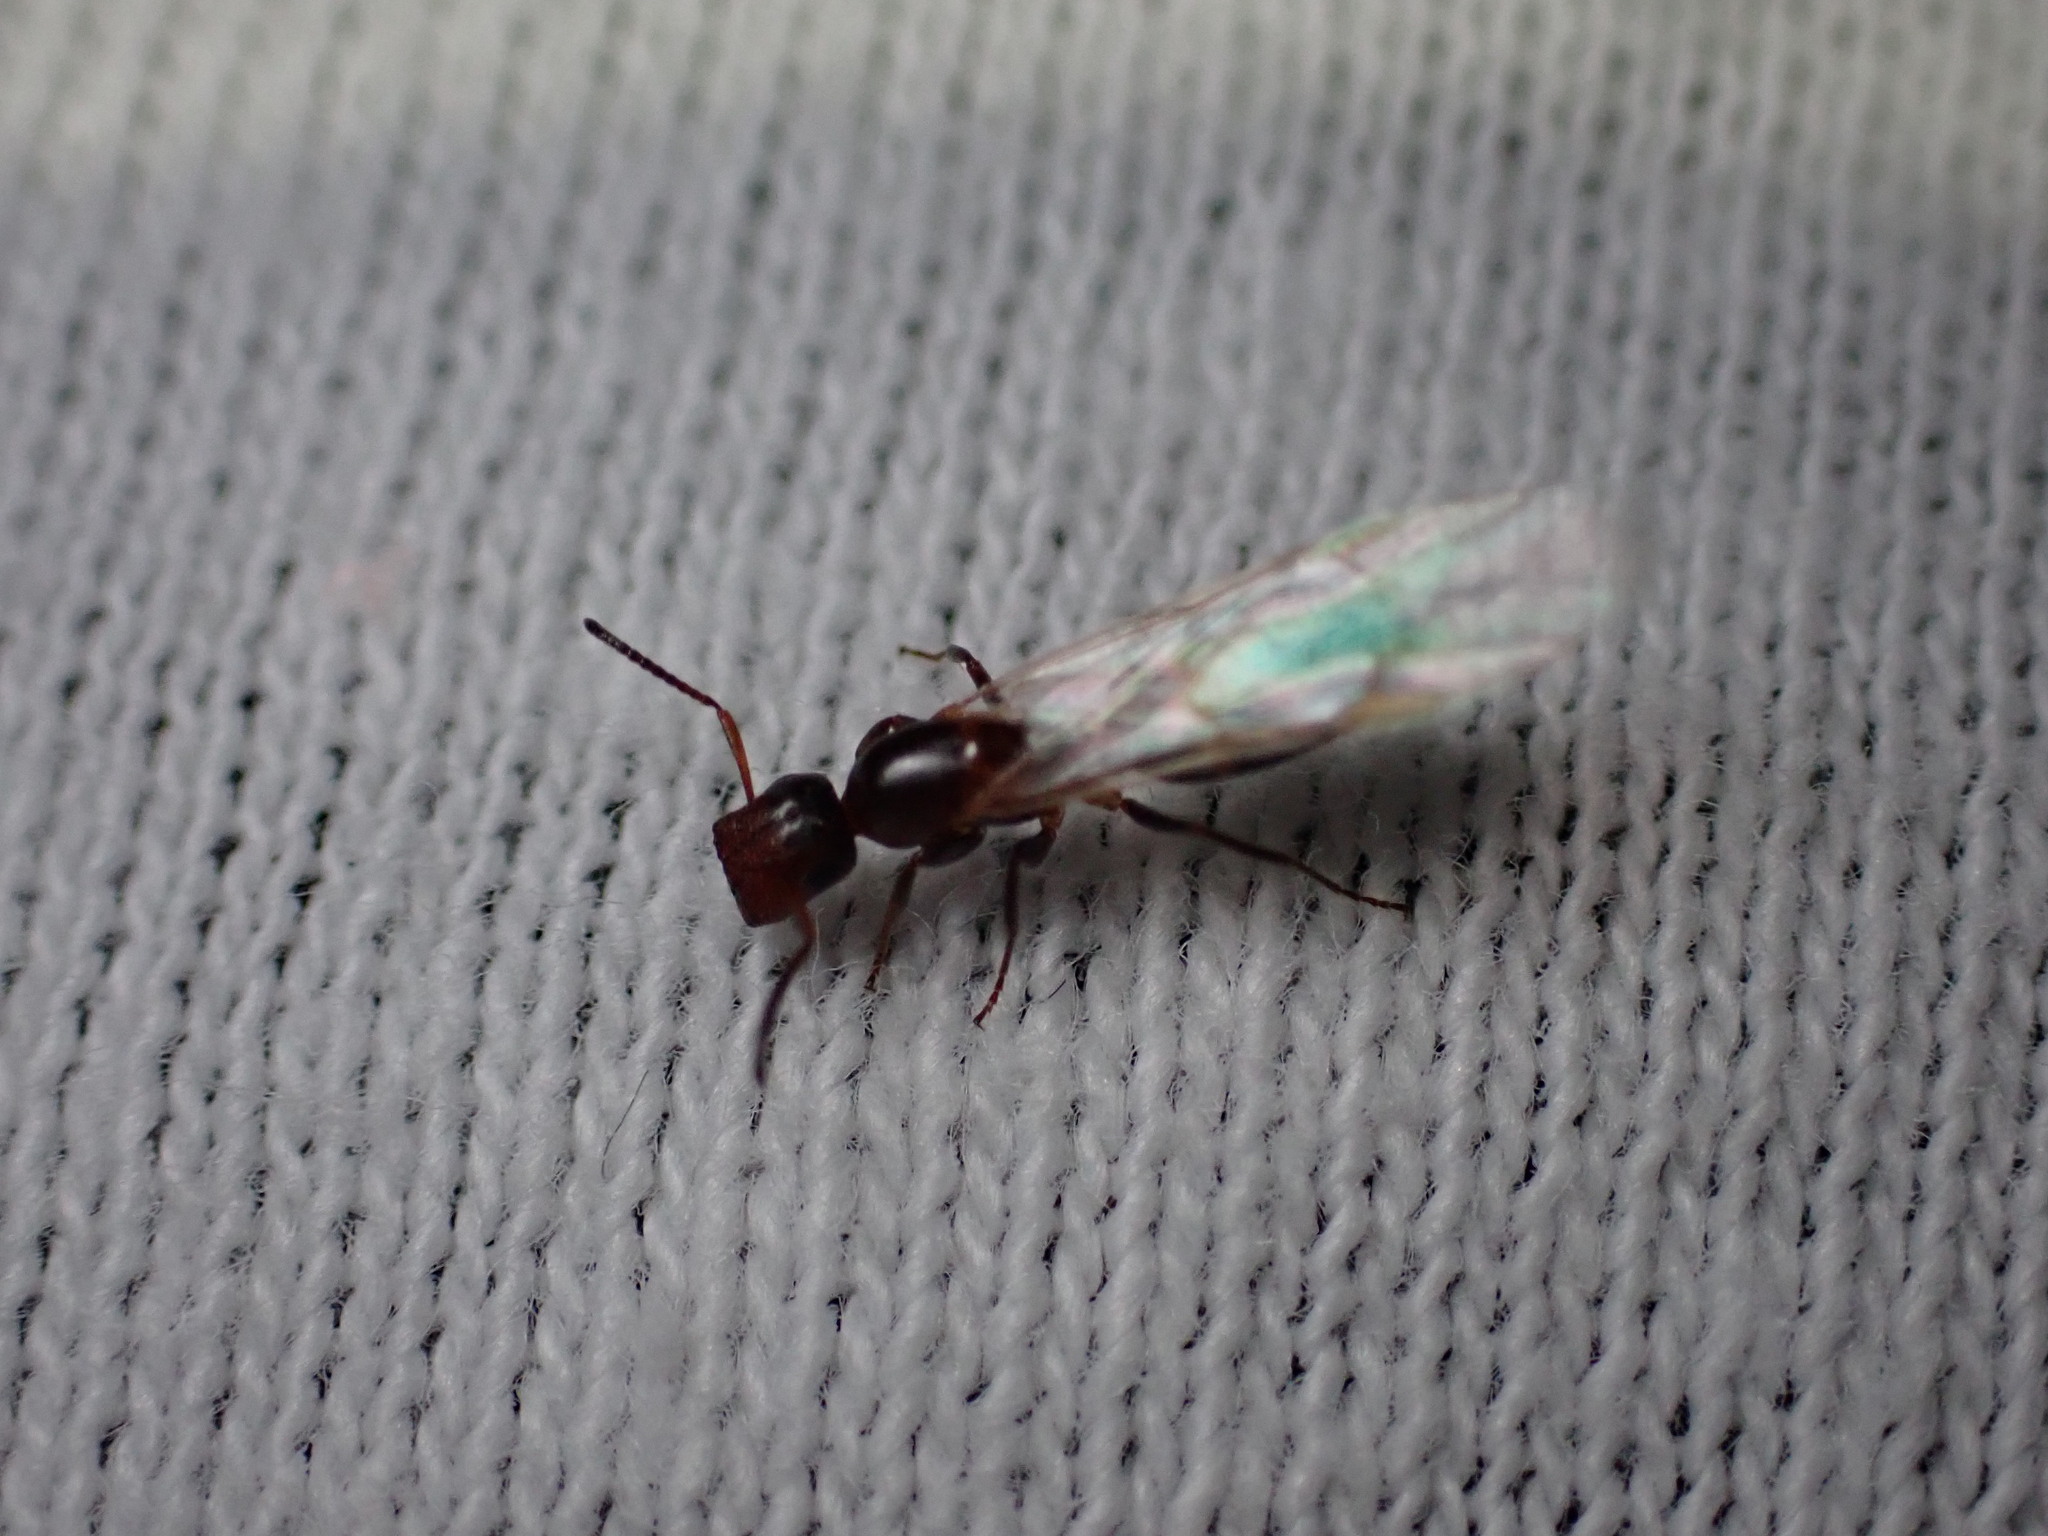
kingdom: Animalia
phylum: Arthropoda
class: Insecta
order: Hymenoptera
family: Formicidae
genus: Camponotus
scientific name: Camponotus truncatus
